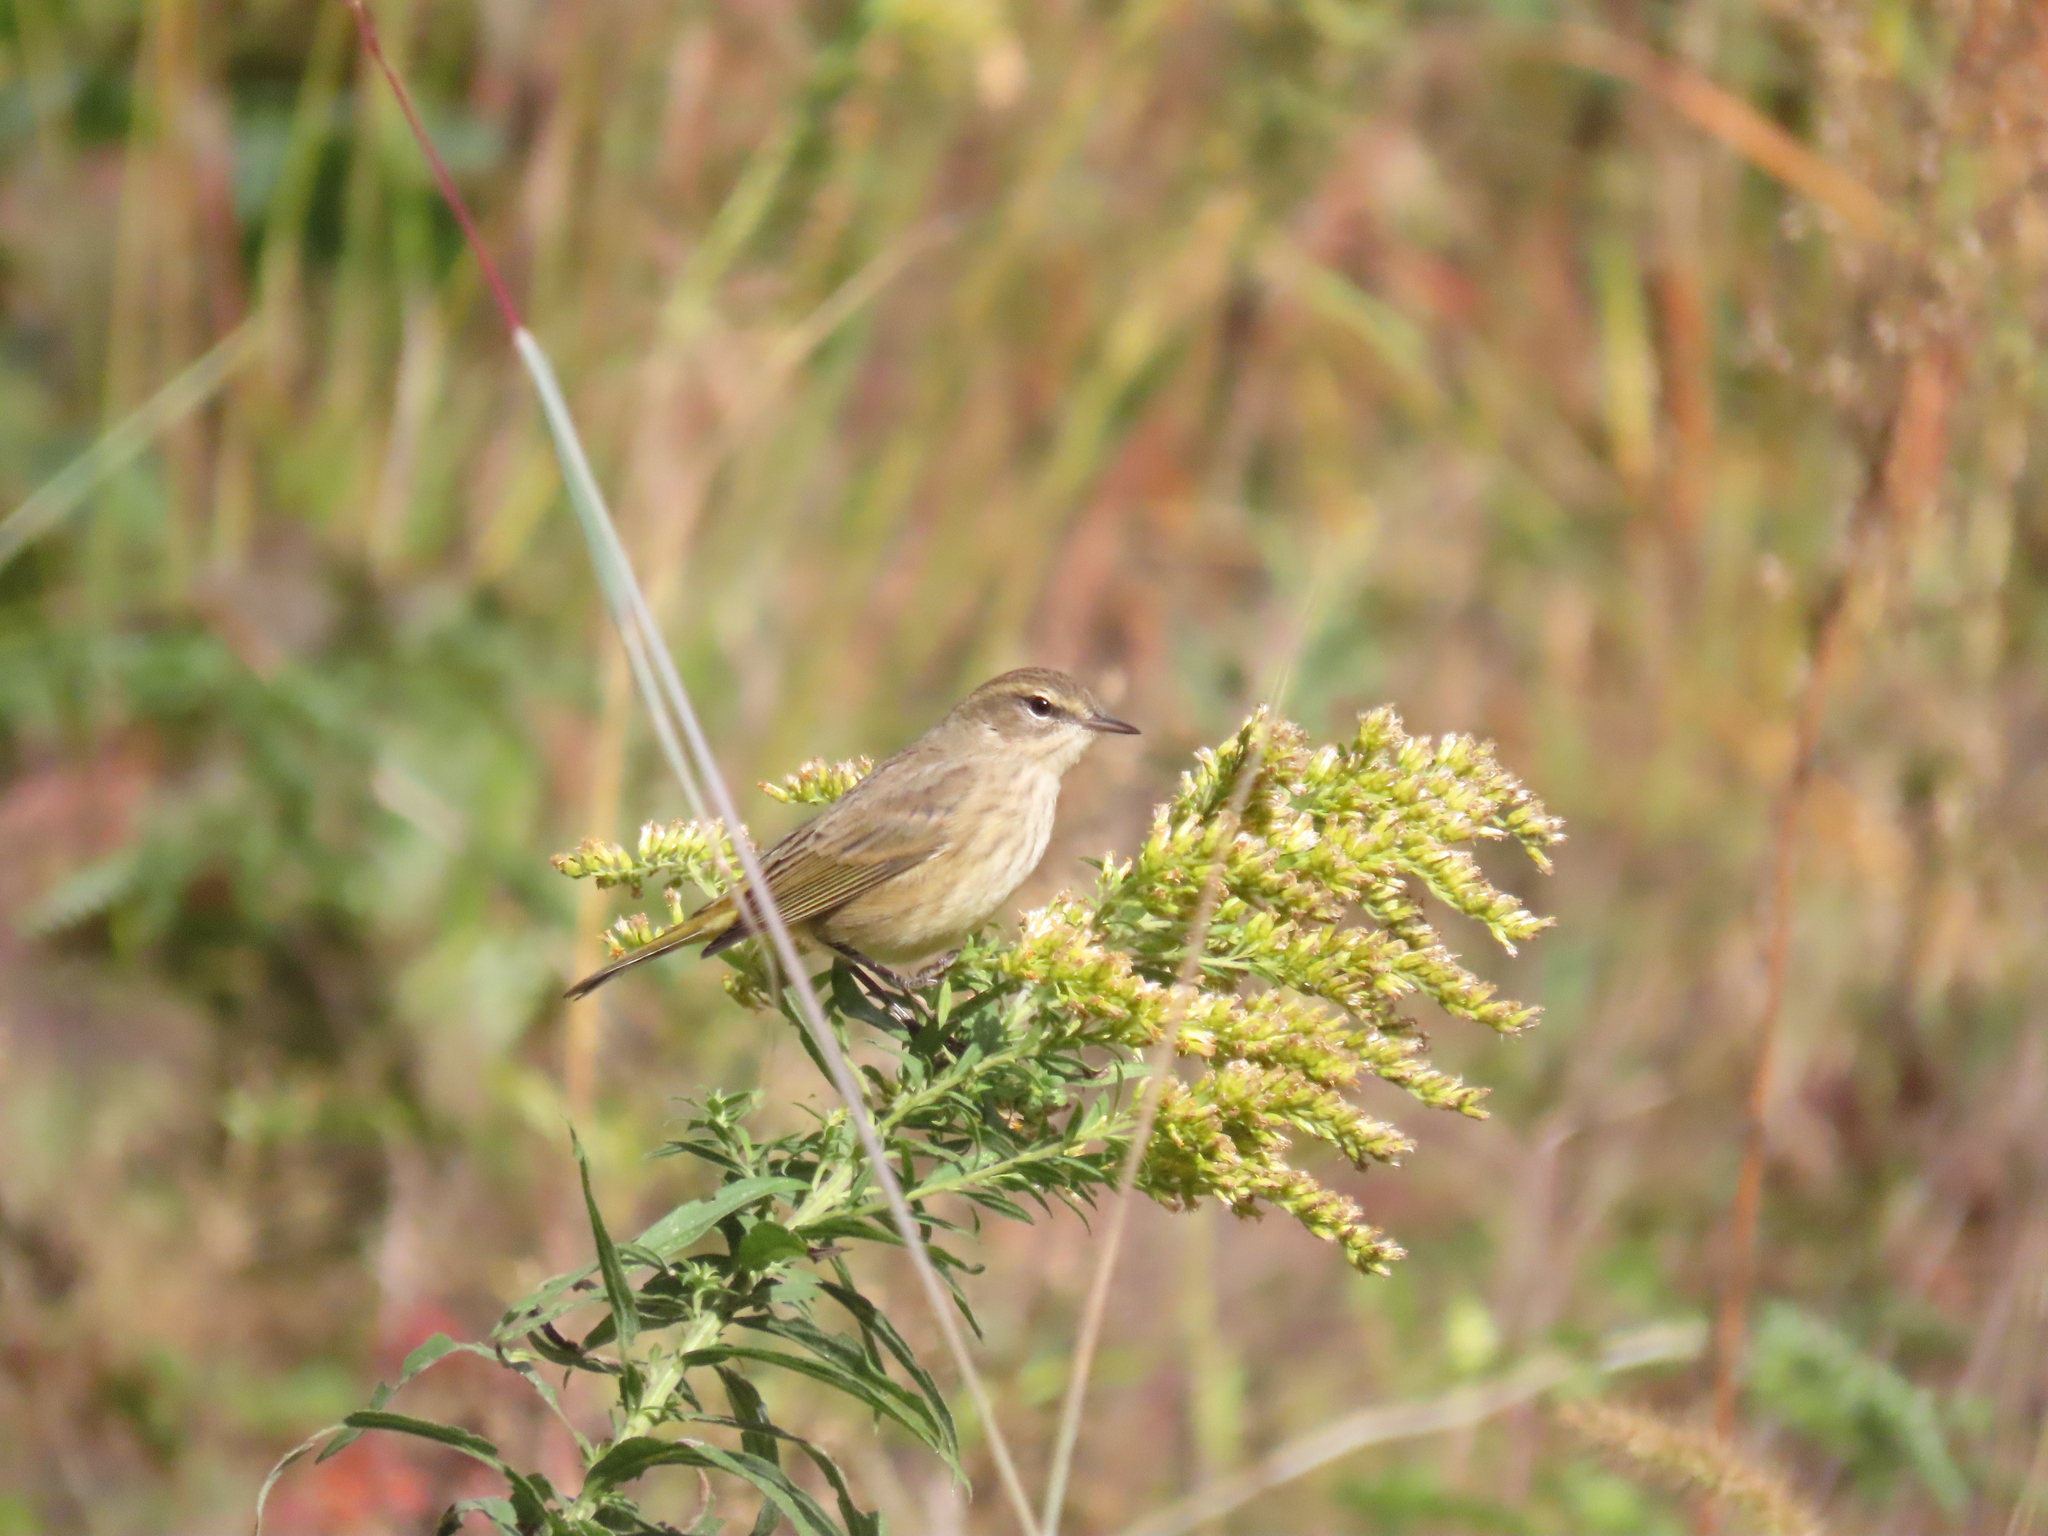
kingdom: Animalia
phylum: Chordata
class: Aves
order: Passeriformes
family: Parulidae
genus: Setophaga
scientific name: Setophaga palmarum
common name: Palm warbler
